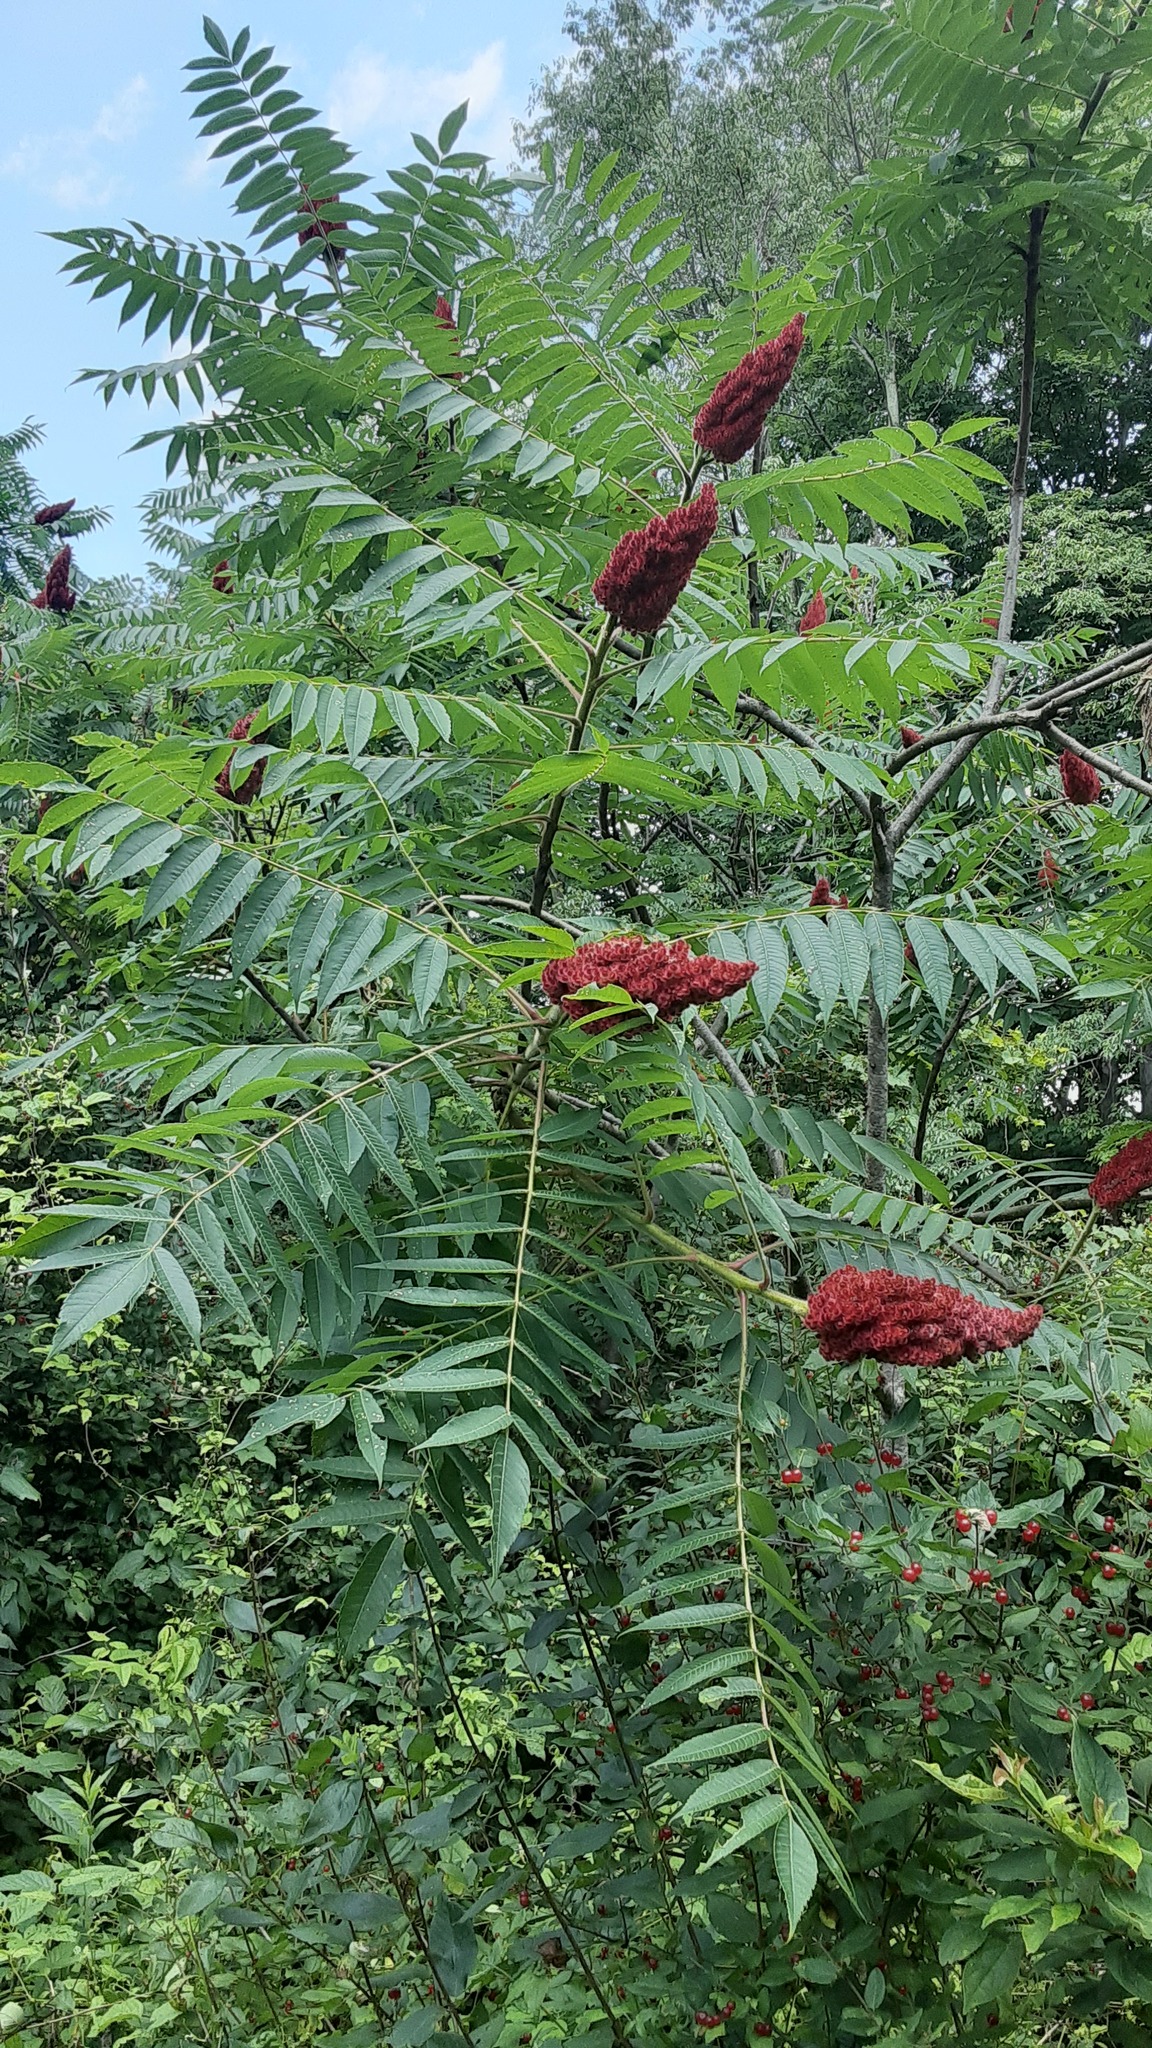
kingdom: Plantae
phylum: Tracheophyta
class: Magnoliopsida
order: Sapindales
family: Anacardiaceae
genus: Rhus
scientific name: Rhus typhina
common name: Staghorn sumac
